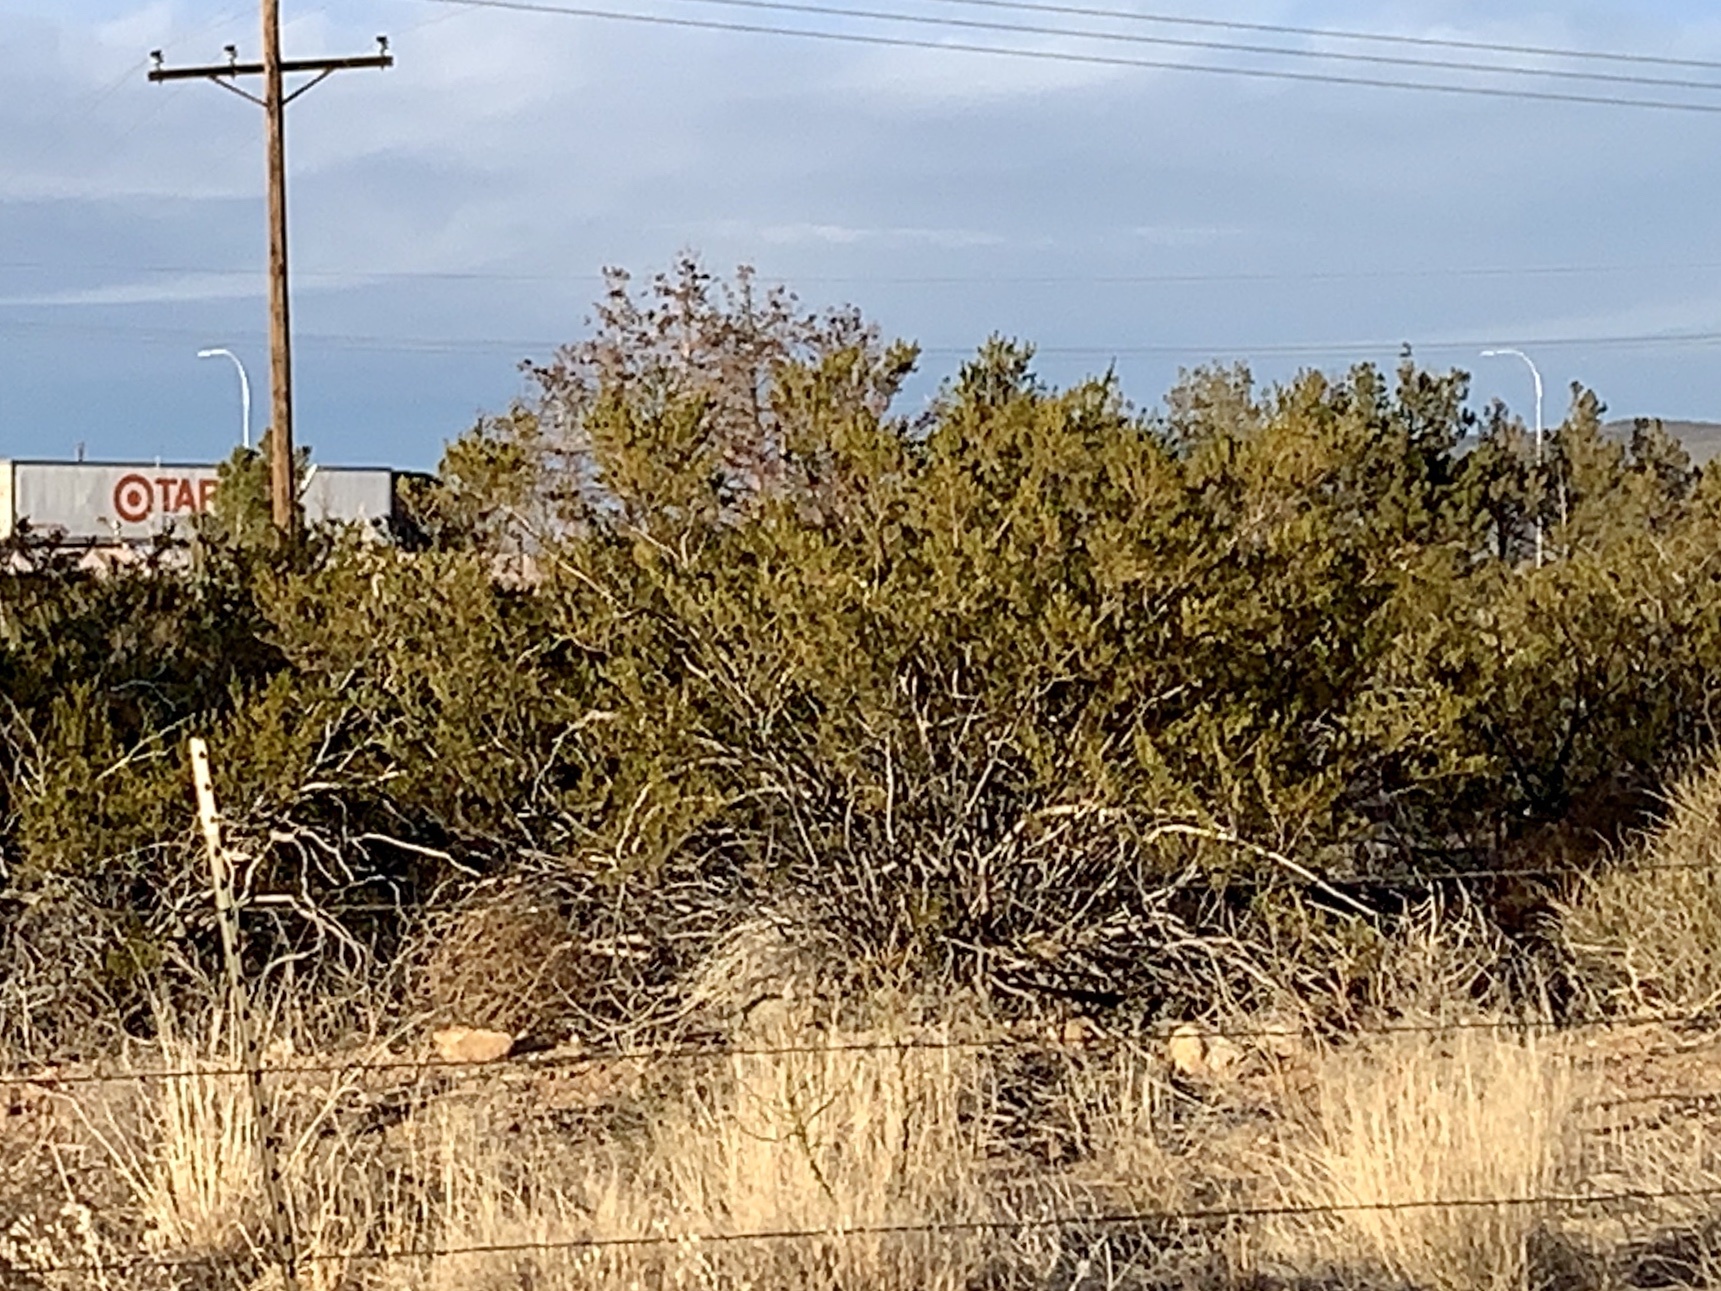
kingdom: Plantae
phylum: Tracheophyta
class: Magnoliopsida
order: Zygophyllales
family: Zygophyllaceae
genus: Larrea
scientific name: Larrea tridentata
